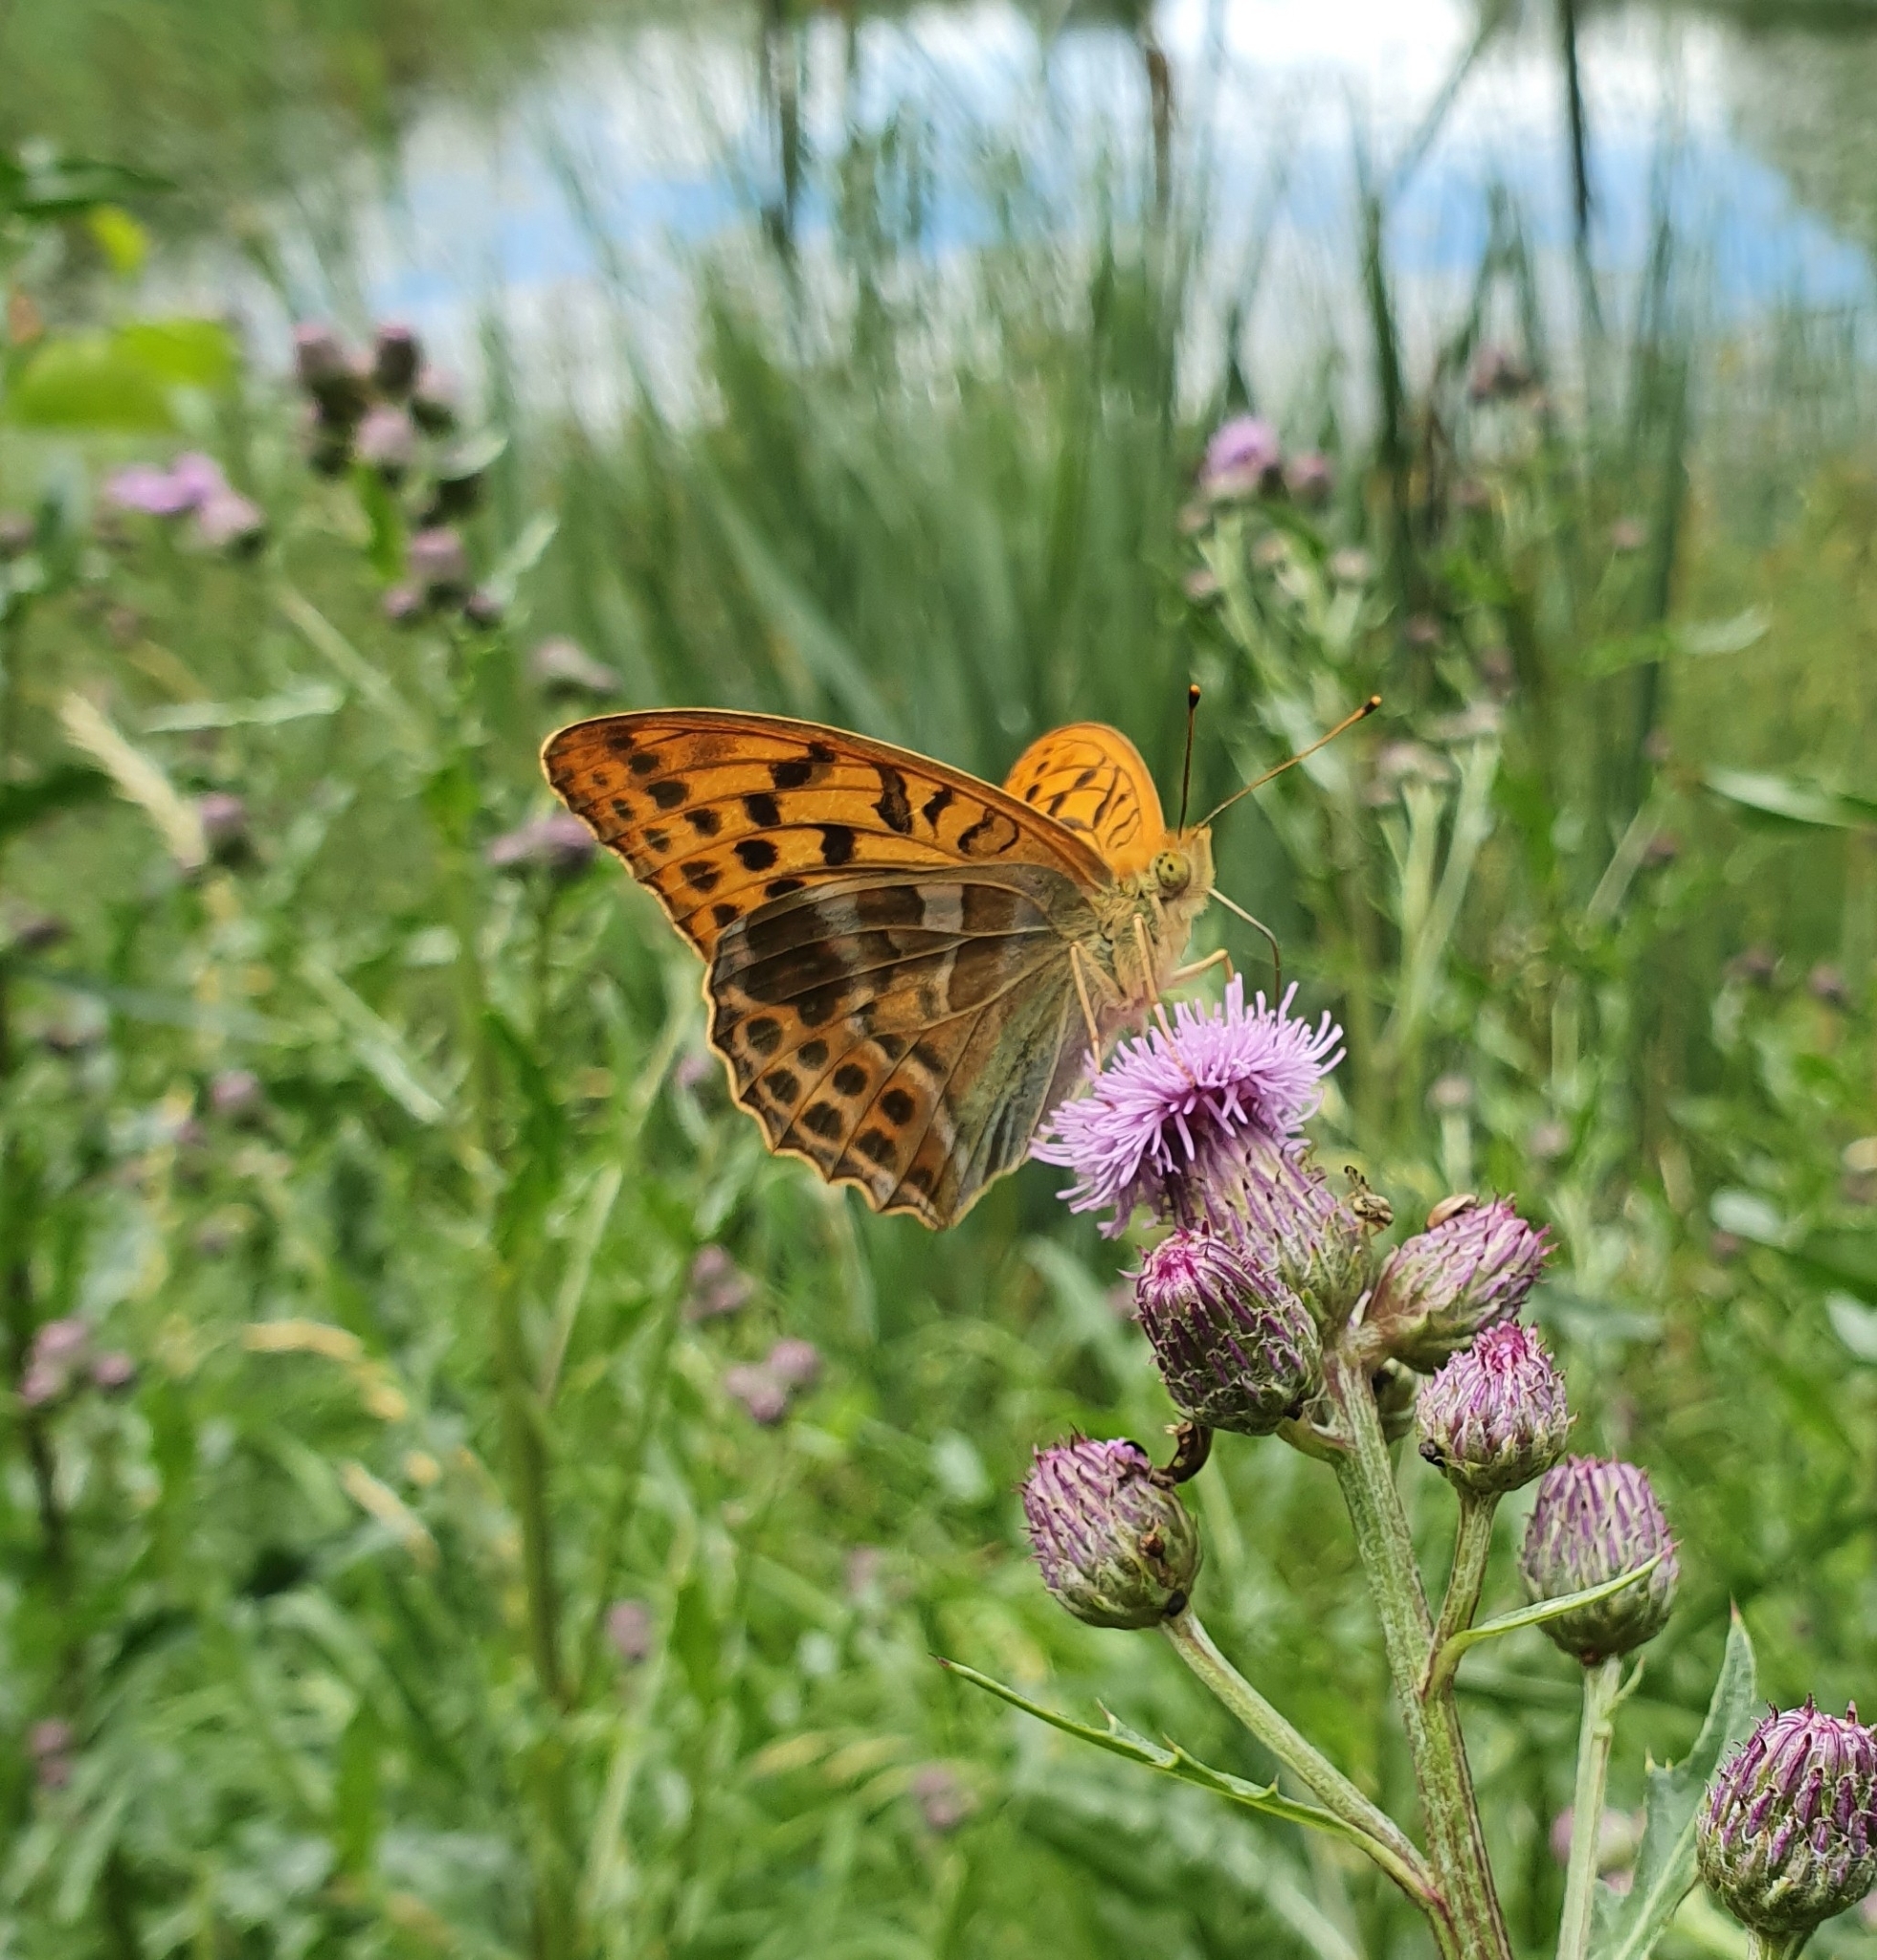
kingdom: Animalia
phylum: Arthropoda
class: Insecta
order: Lepidoptera
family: Nymphalidae
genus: Argynnis
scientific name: Argynnis paphia
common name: Silver-washed fritillary
